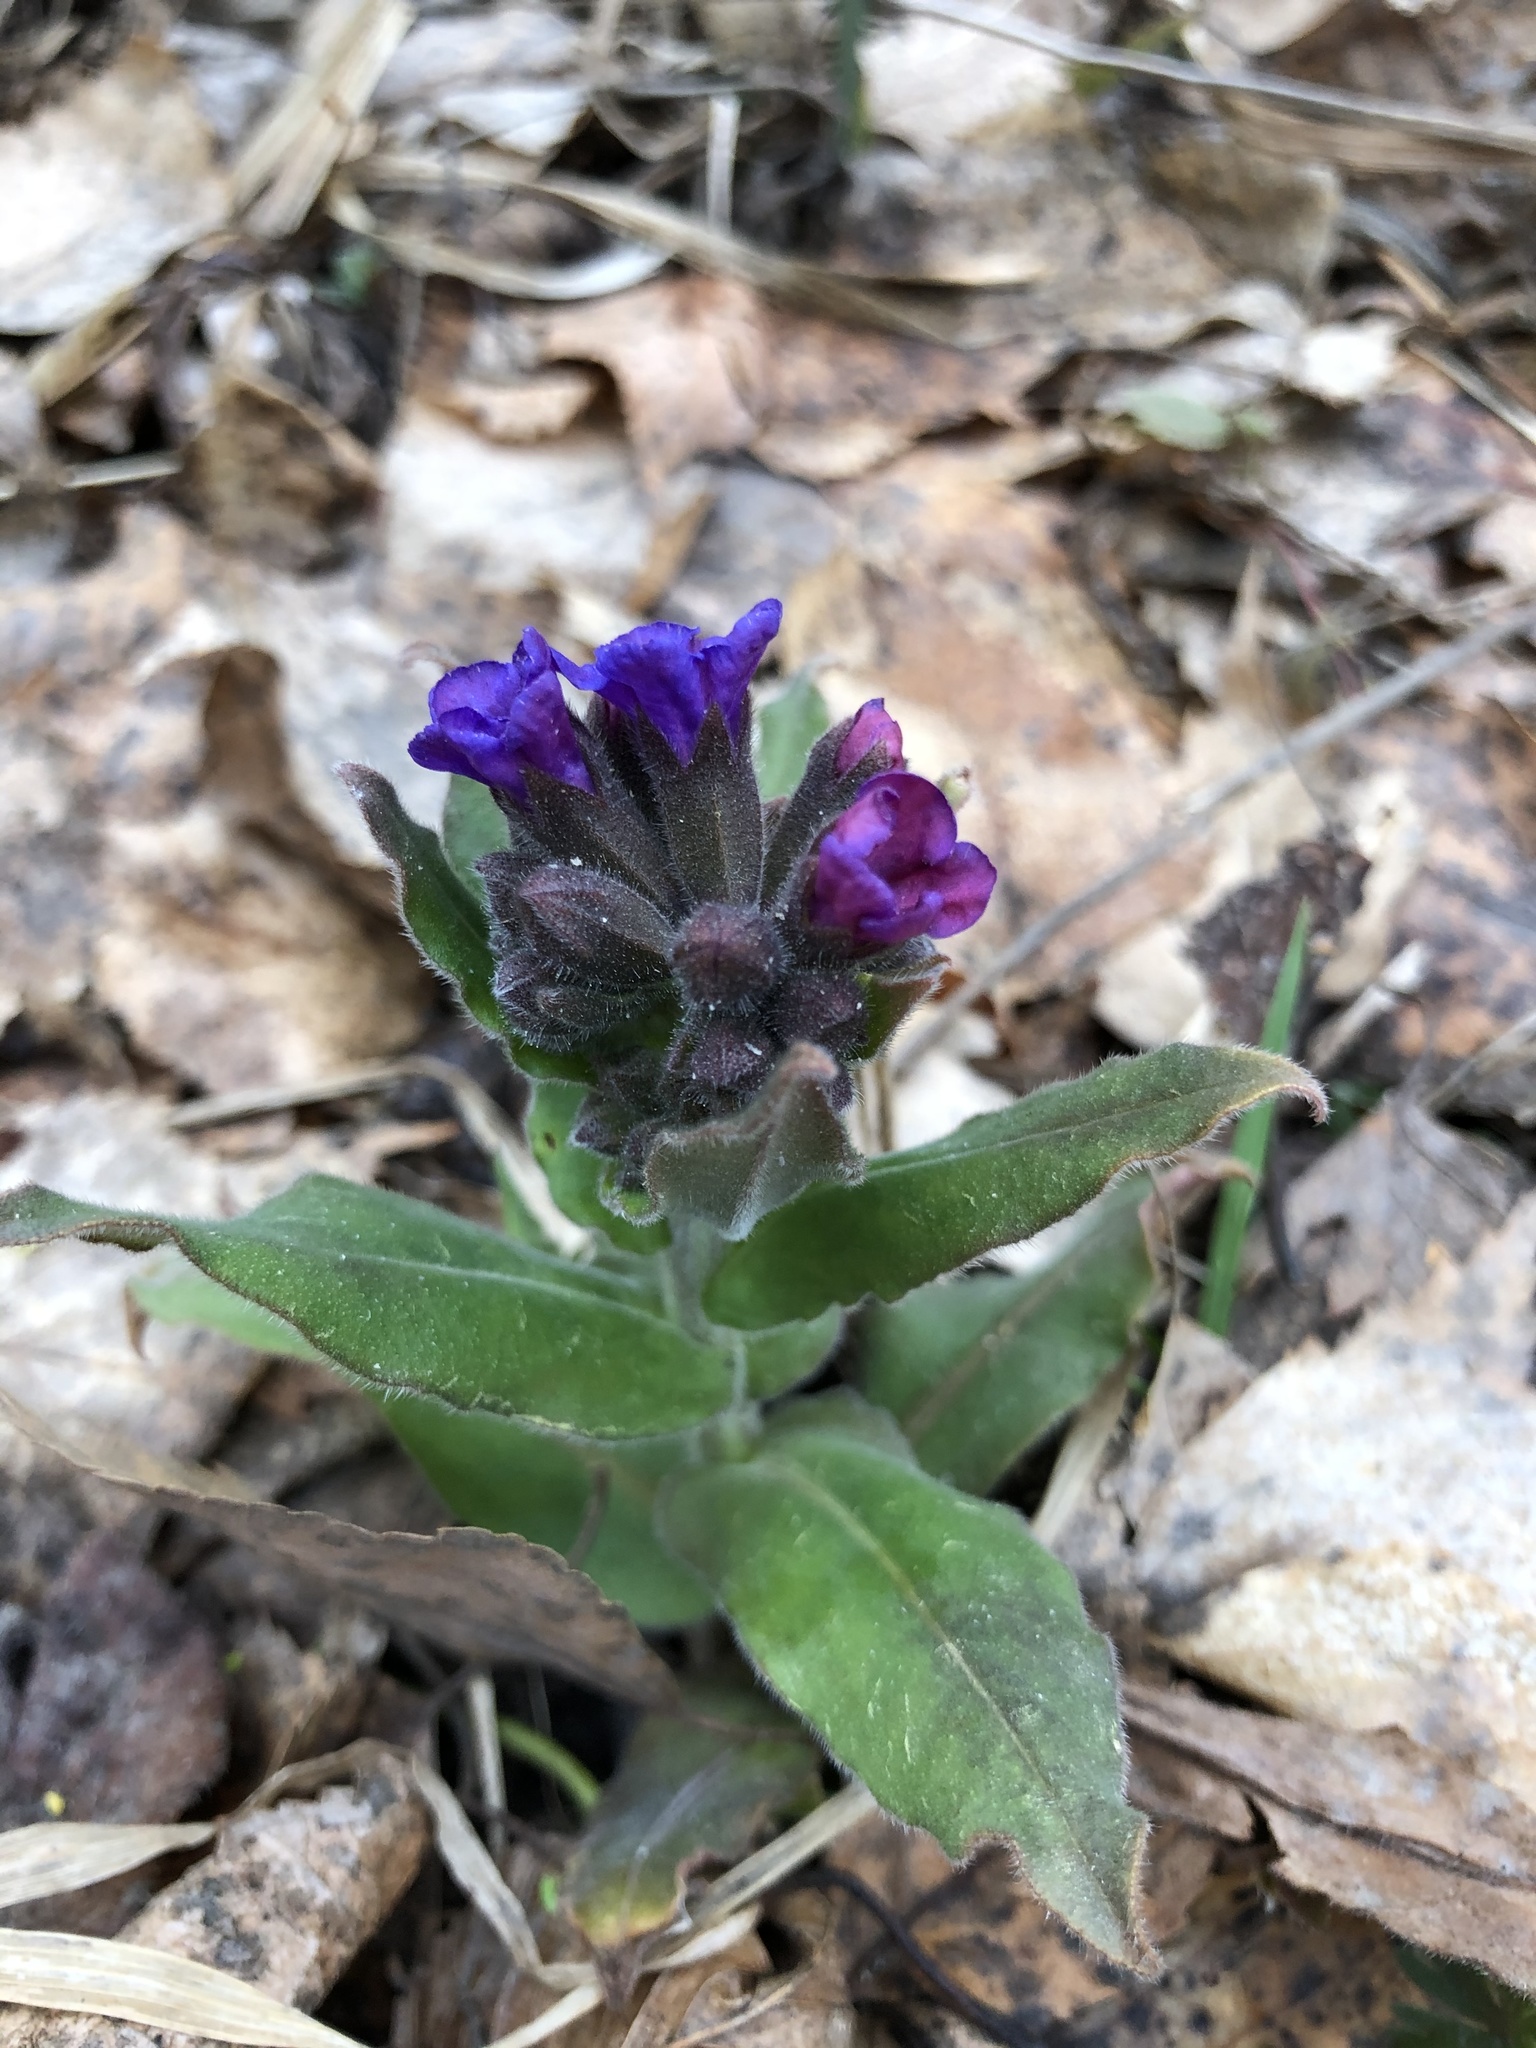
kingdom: Plantae
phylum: Tracheophyta
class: Magnoliopsida
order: Boraginales
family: Boraginaceae
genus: Pulmonaria
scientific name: Pulmonaria mollis
